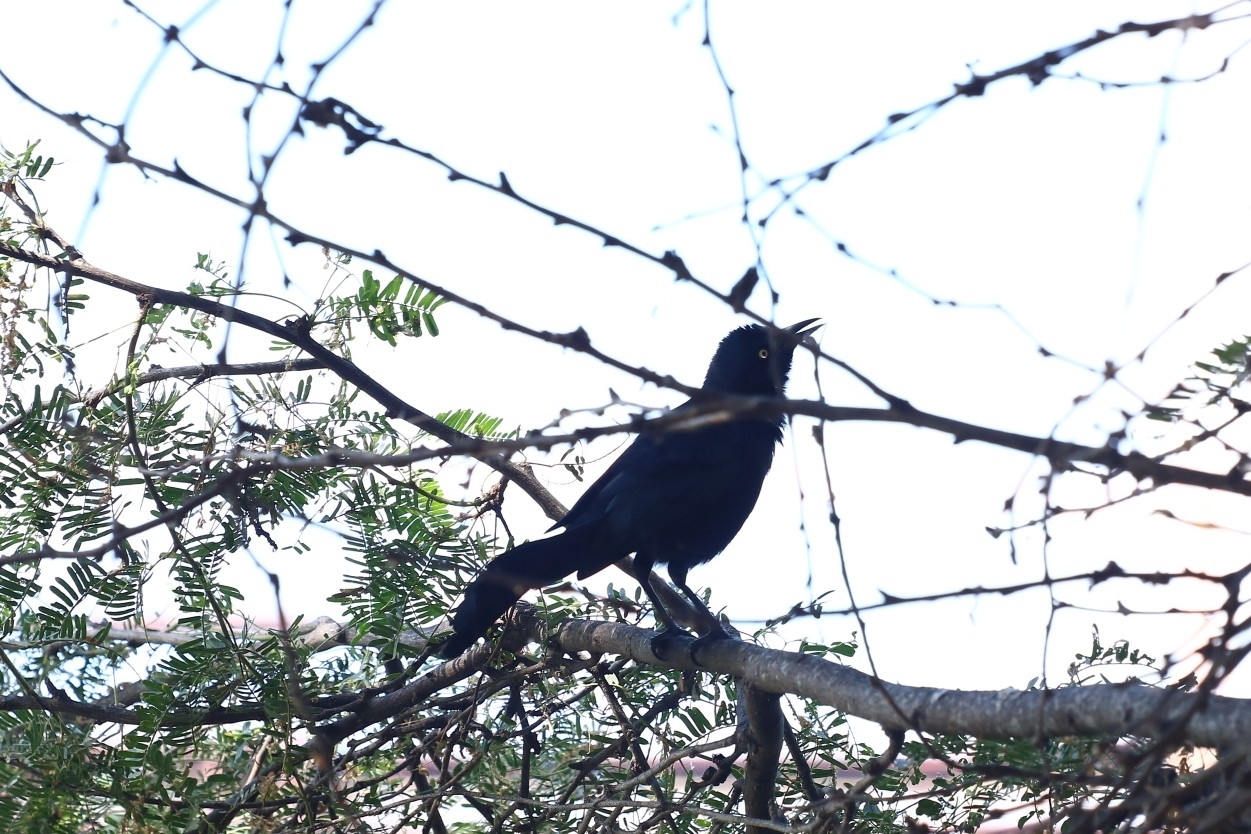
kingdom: Animalia
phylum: Chordata
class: Aves
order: Passeriformes
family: Icteridae
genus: Quiscalus
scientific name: Quiscalus lugubris
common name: Carib grackle
